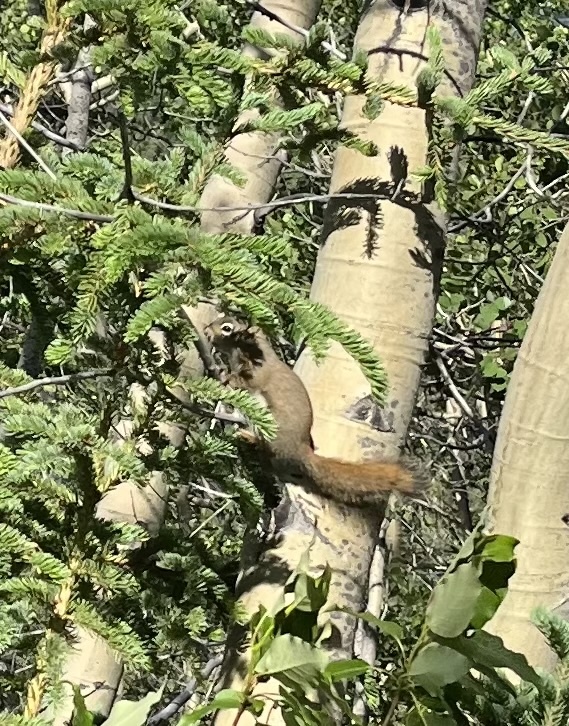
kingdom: Animalia
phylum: Chordata
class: Mammalia
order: Rodentia
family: Sciuridae
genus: Tamiasciurus
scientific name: Tamiasciurus hudsonicus
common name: Red squirrel
